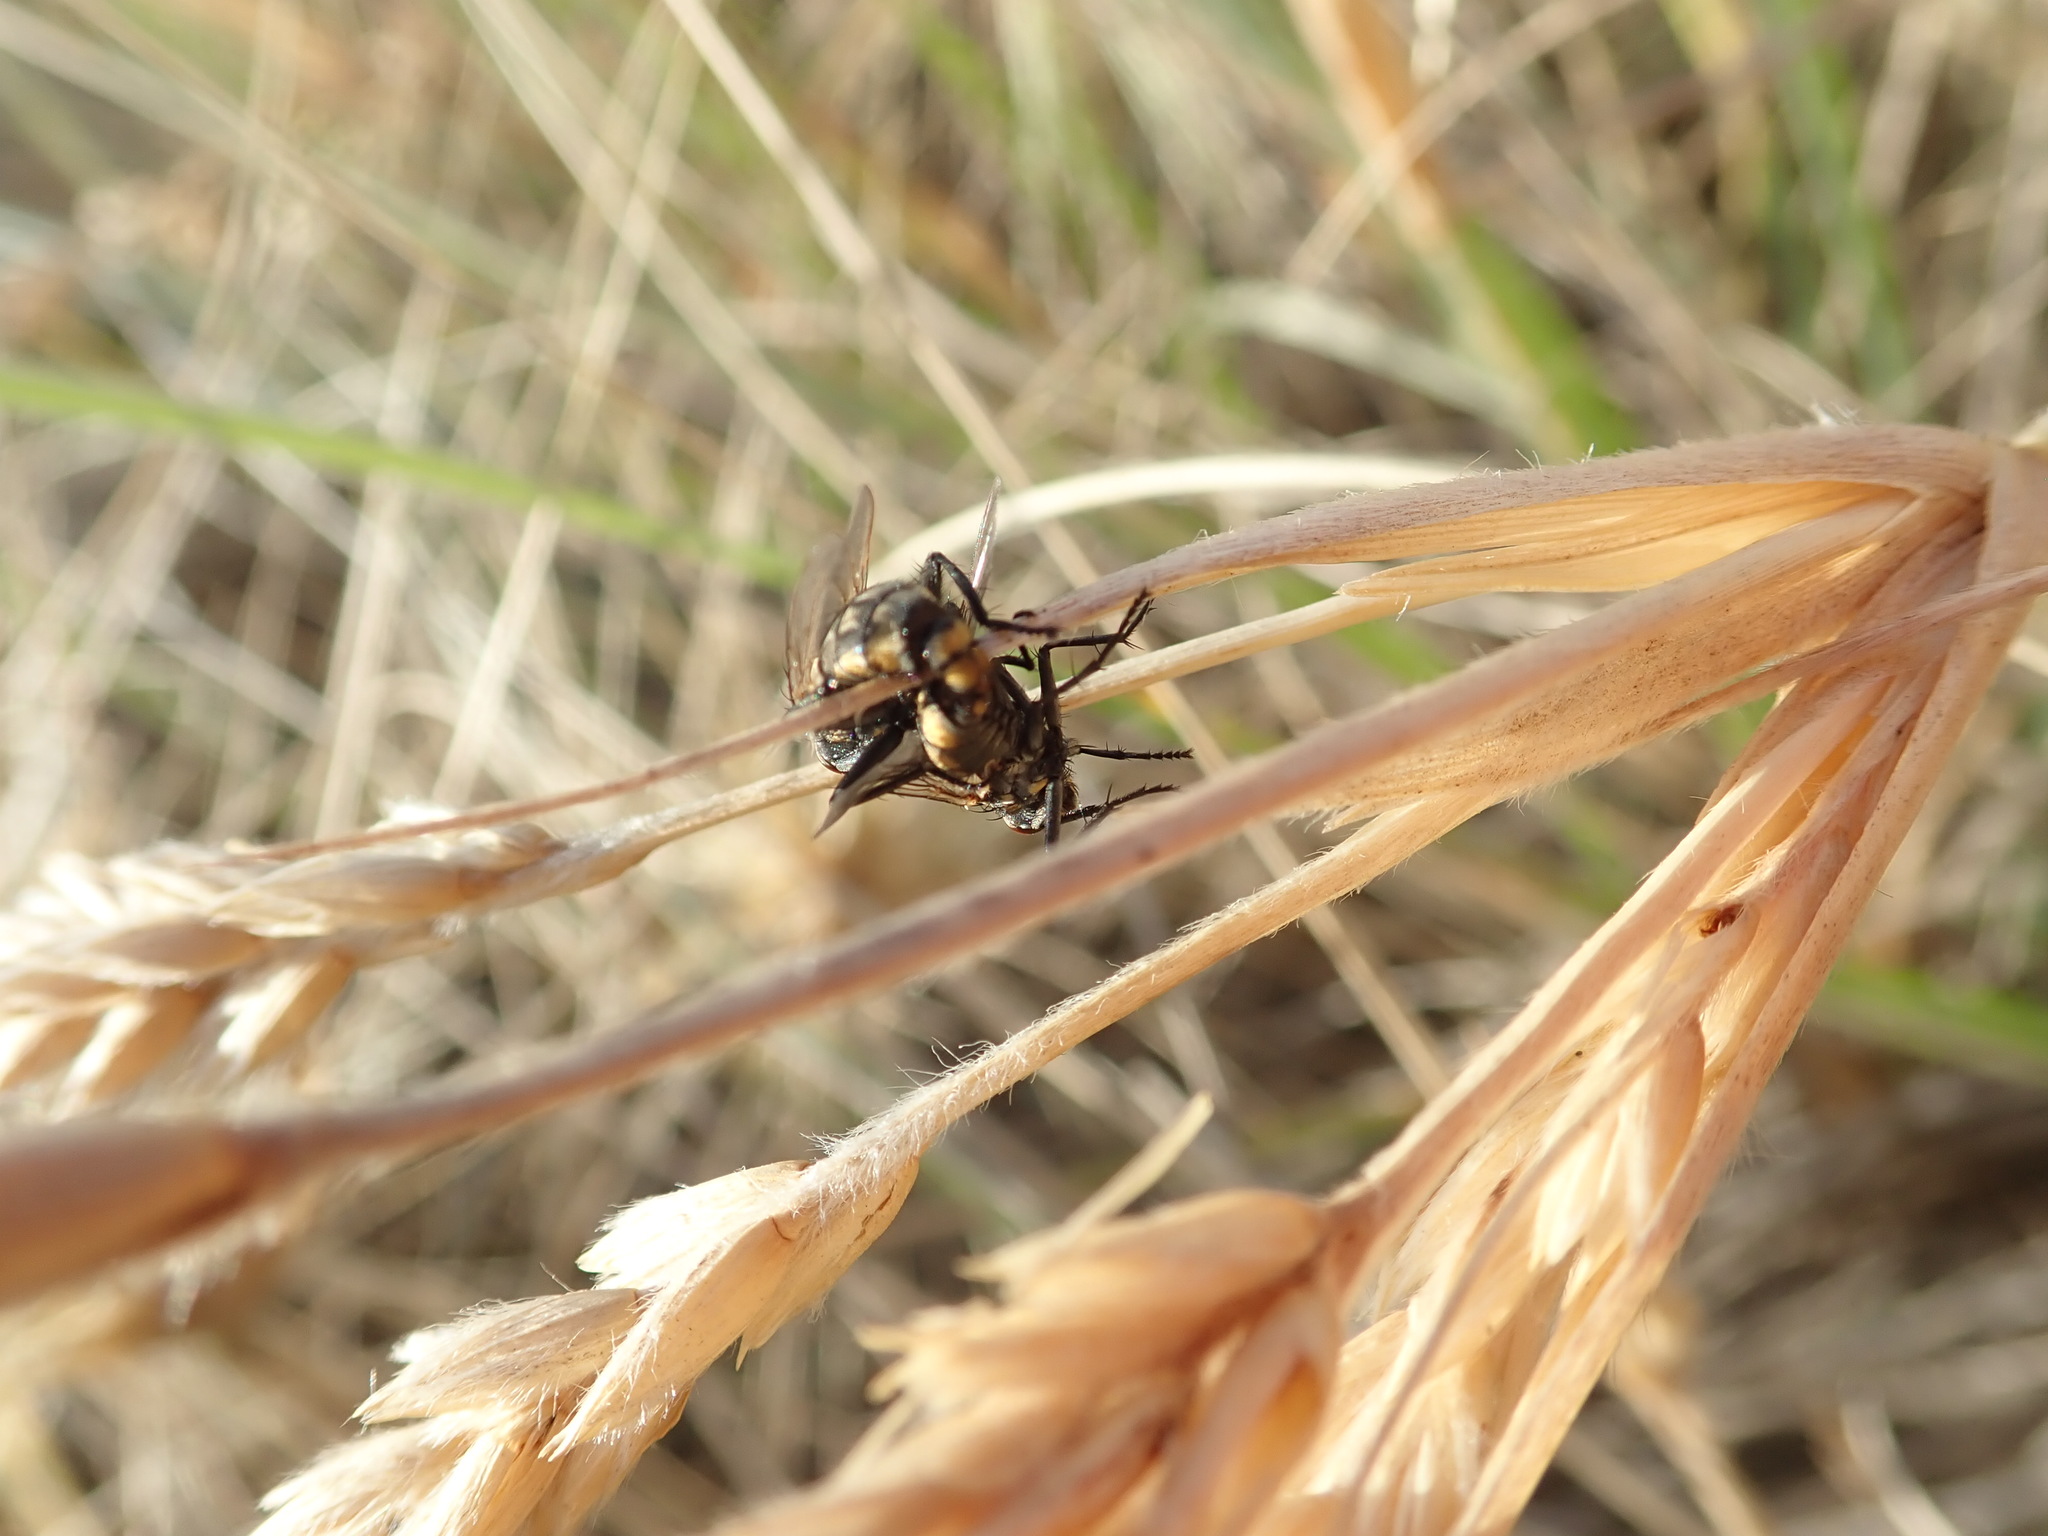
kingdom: Animalia
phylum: Arthropoda
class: Insecta
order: Diptera
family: Sarcophagidae
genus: Oxysarcodexia
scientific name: Oxysarcodexia varia
